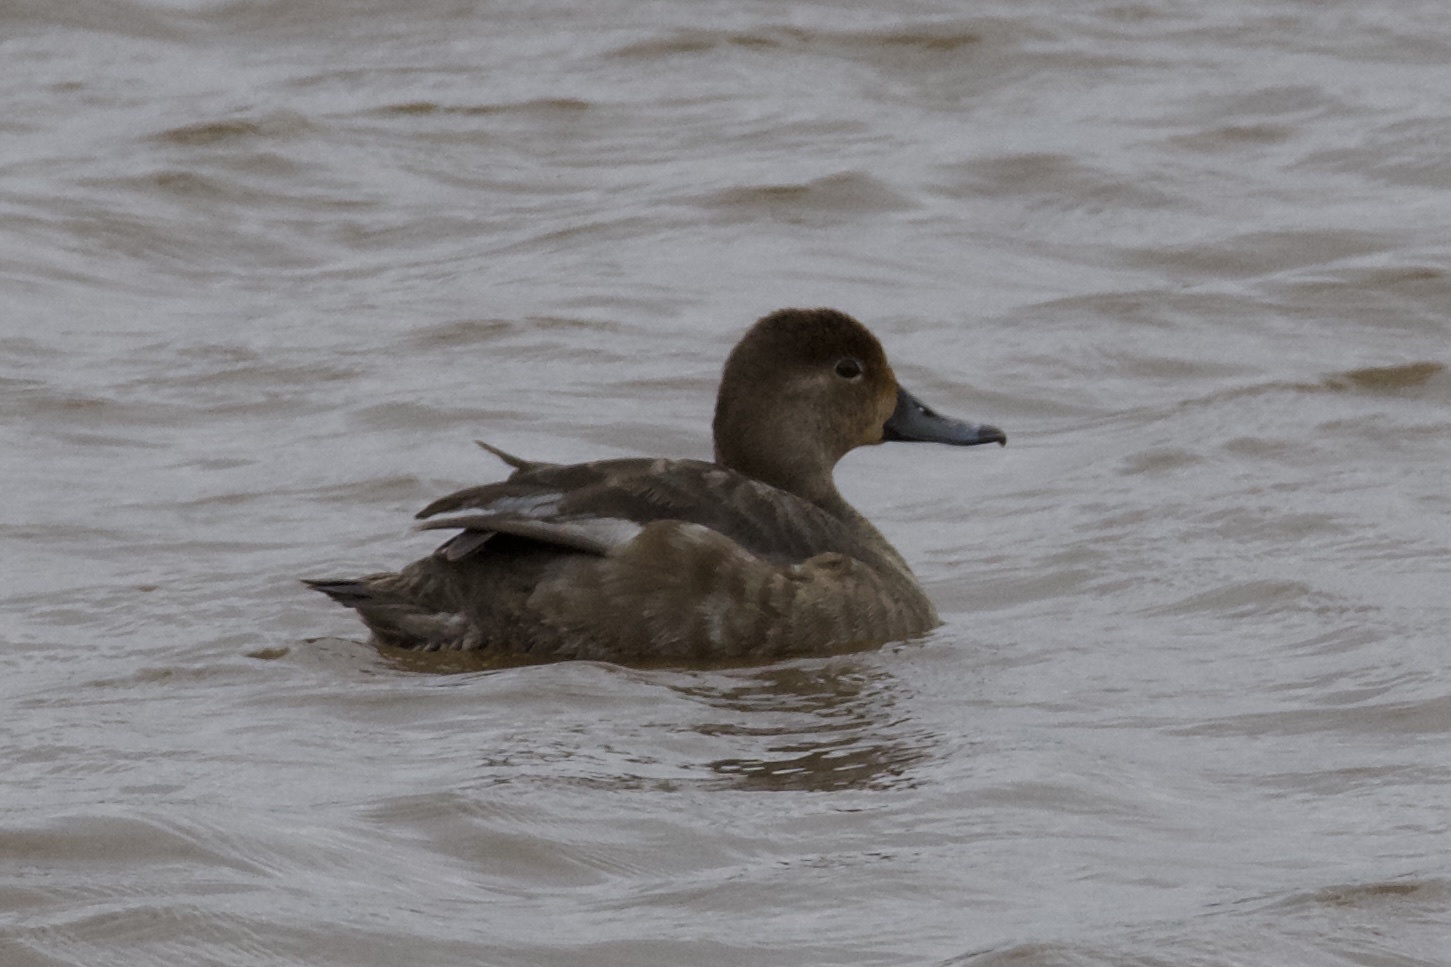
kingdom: Animalia
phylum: Chordata
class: Aves
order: Anseriformes
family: Anatidae
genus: Aythya
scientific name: Aythya americana
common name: Redhead
